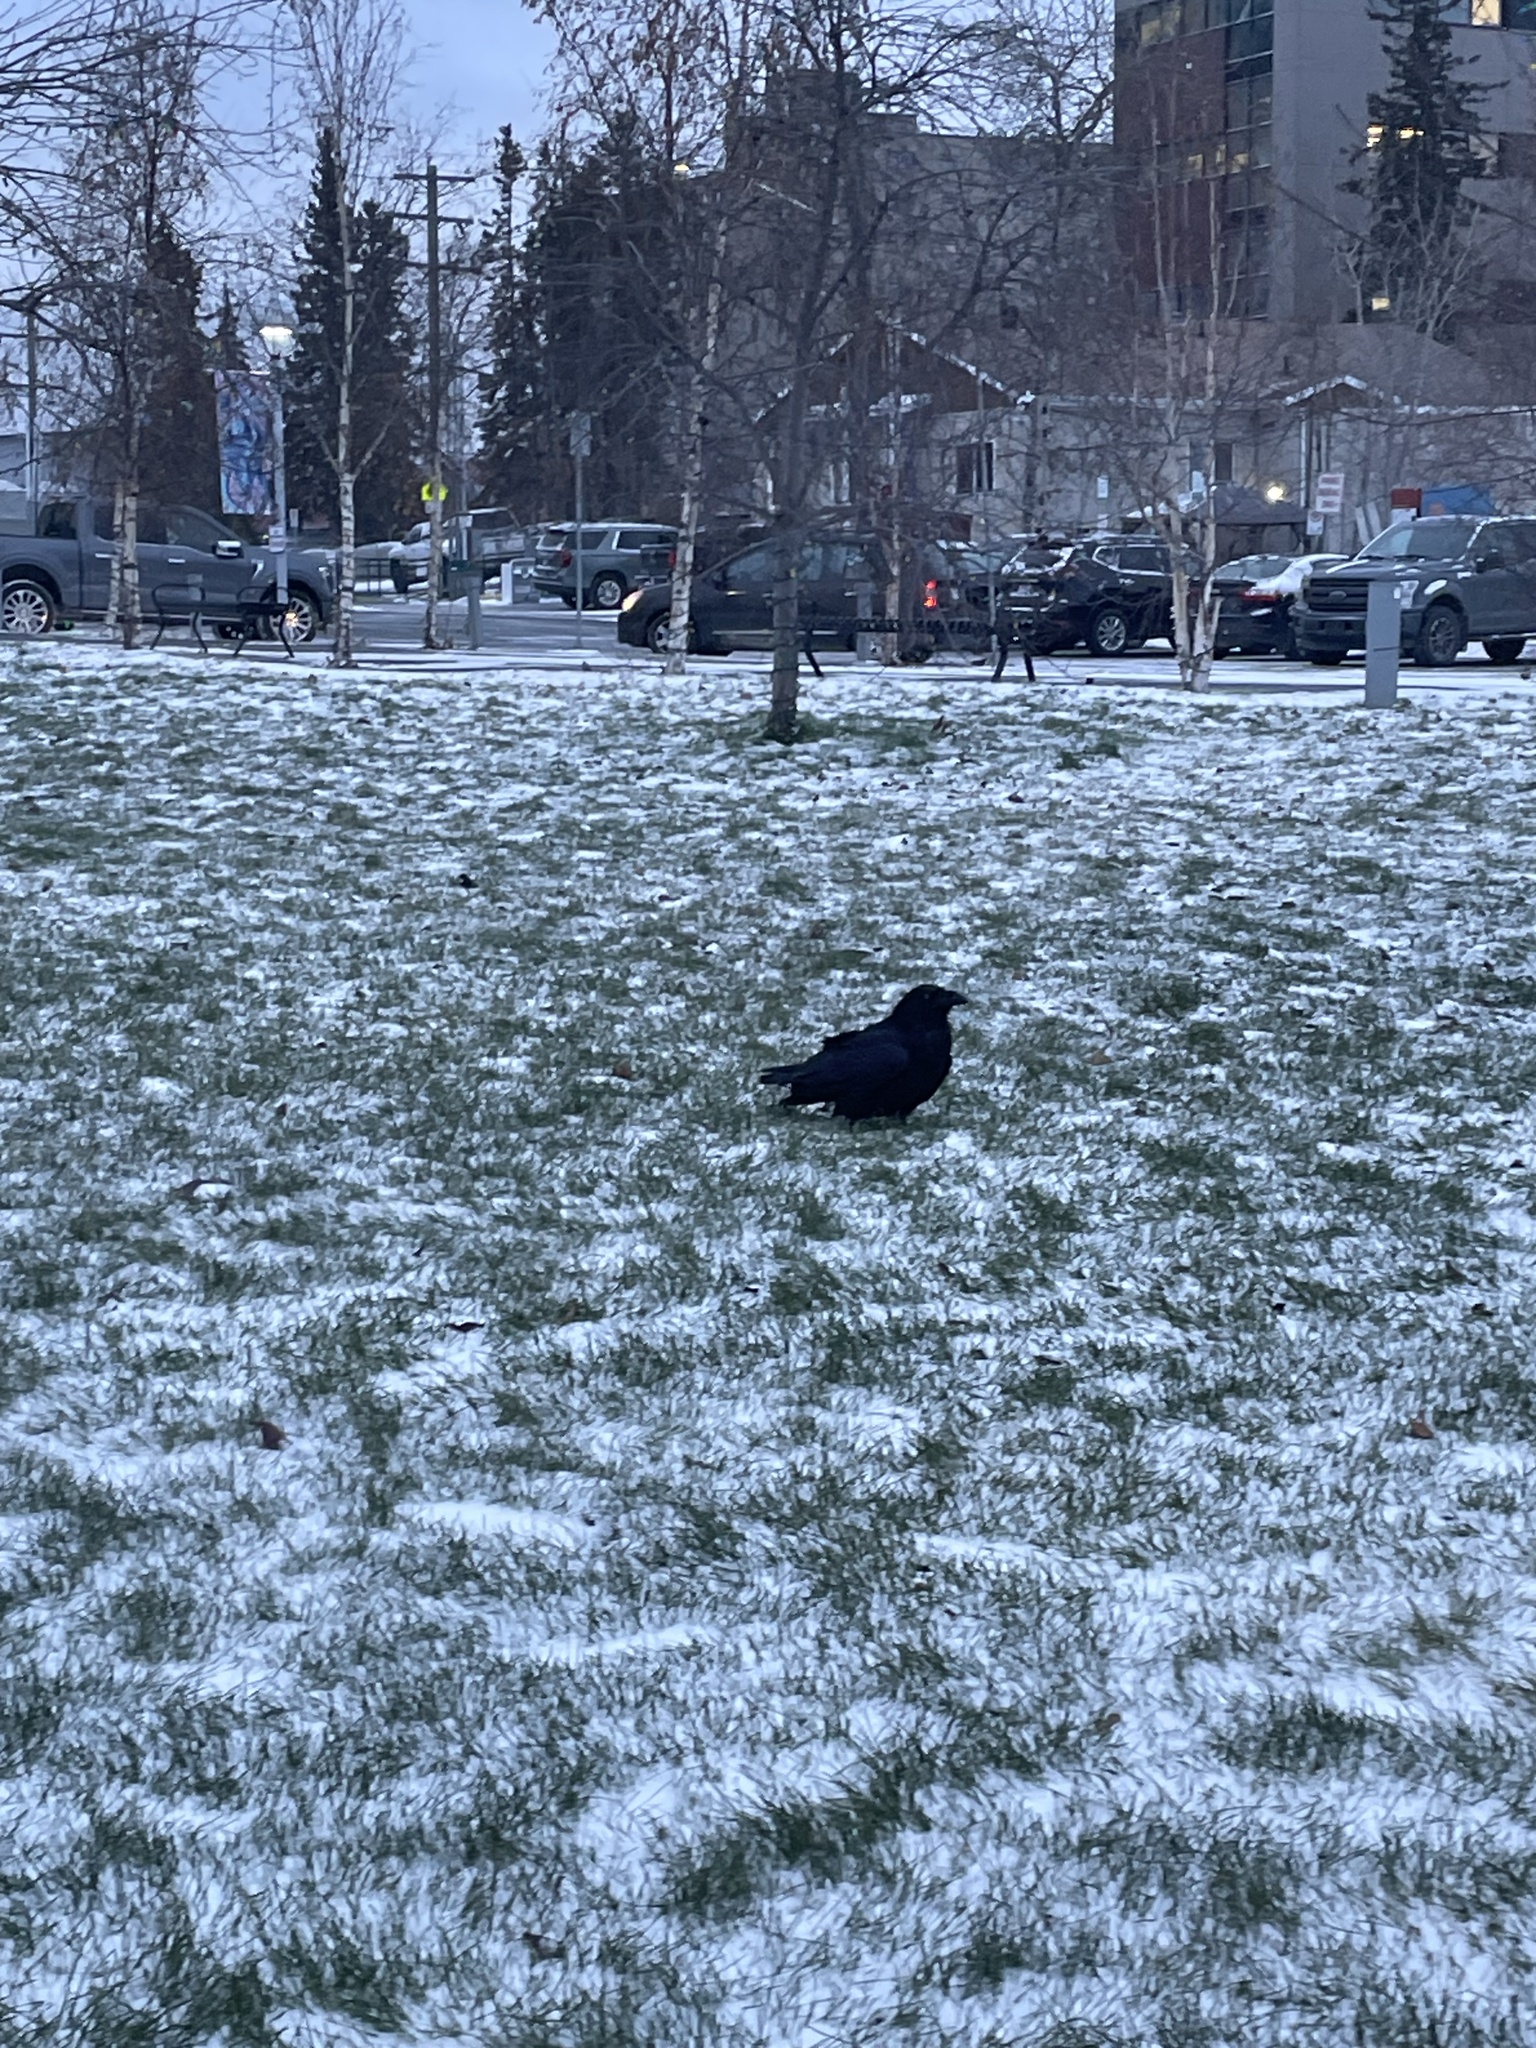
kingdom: Animalia
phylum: Chordata
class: Aves
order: Passeriformes
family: Corvidae
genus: Corvus
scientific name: Corvus corax
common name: Common raven
